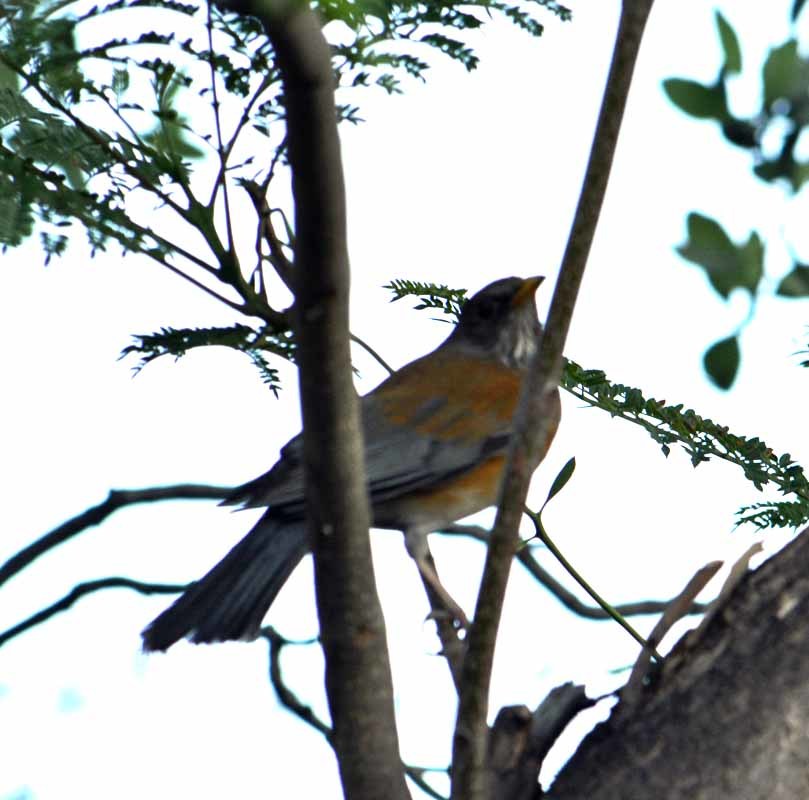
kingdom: Animalia
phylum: Chordata
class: Aves
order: Passeriformes
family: Turdidae
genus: Turdus
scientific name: Turdus rufopalliatus
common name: Rufous-backed robin
